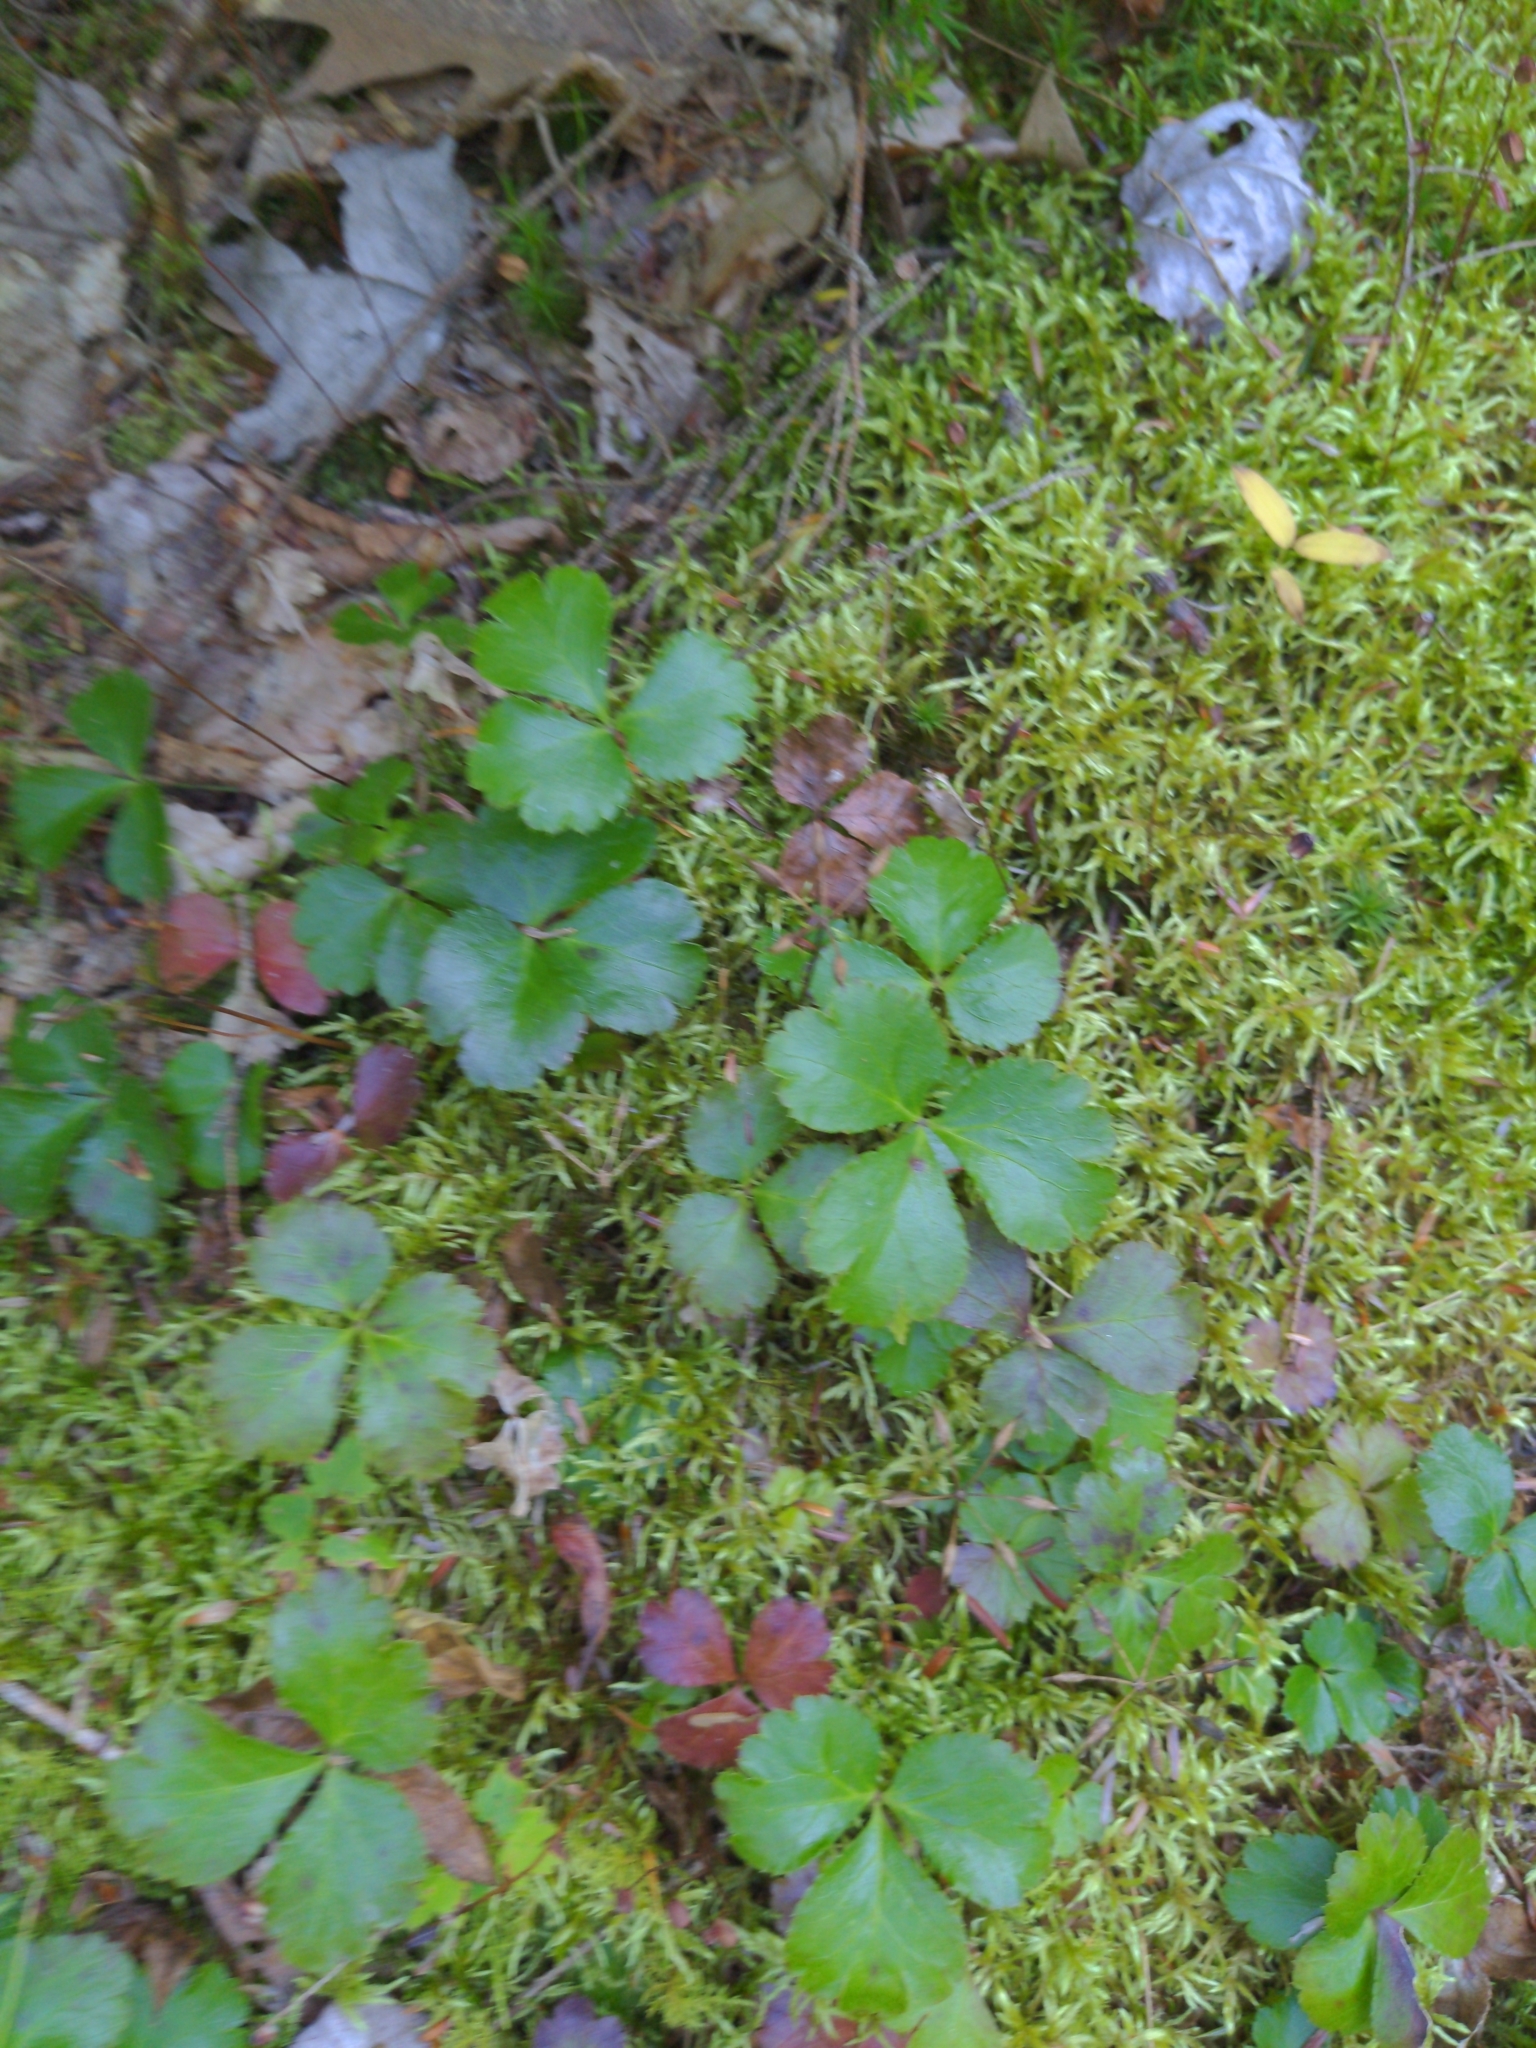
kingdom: Plantae
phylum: Tracheophyta
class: Magnoliopsida
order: Ranunculales
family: Ranunculaceae
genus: Coptis
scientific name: Coptis trifolia
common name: Canker-root
